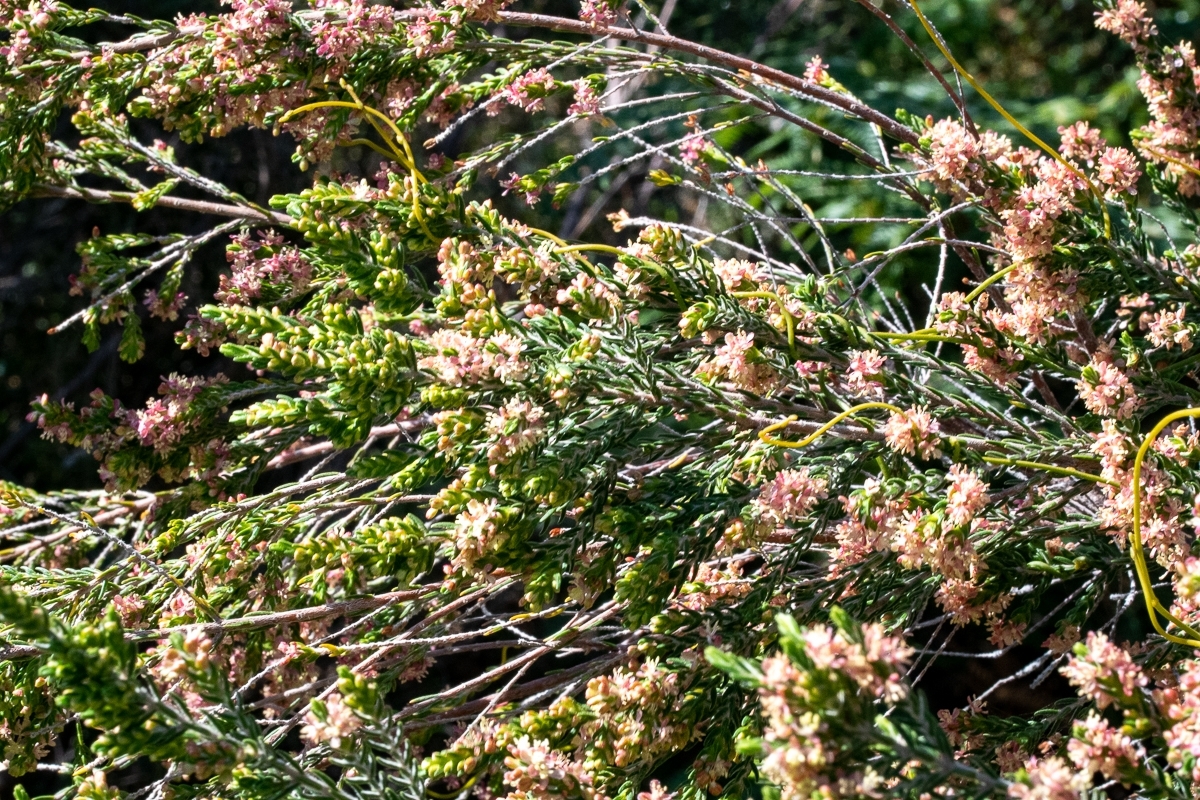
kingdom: Plantae
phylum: Tracheophyta
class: Magnoliopsida
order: Malvales
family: Thymelaeaceae
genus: Passerina
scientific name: Passerina corymbosa
